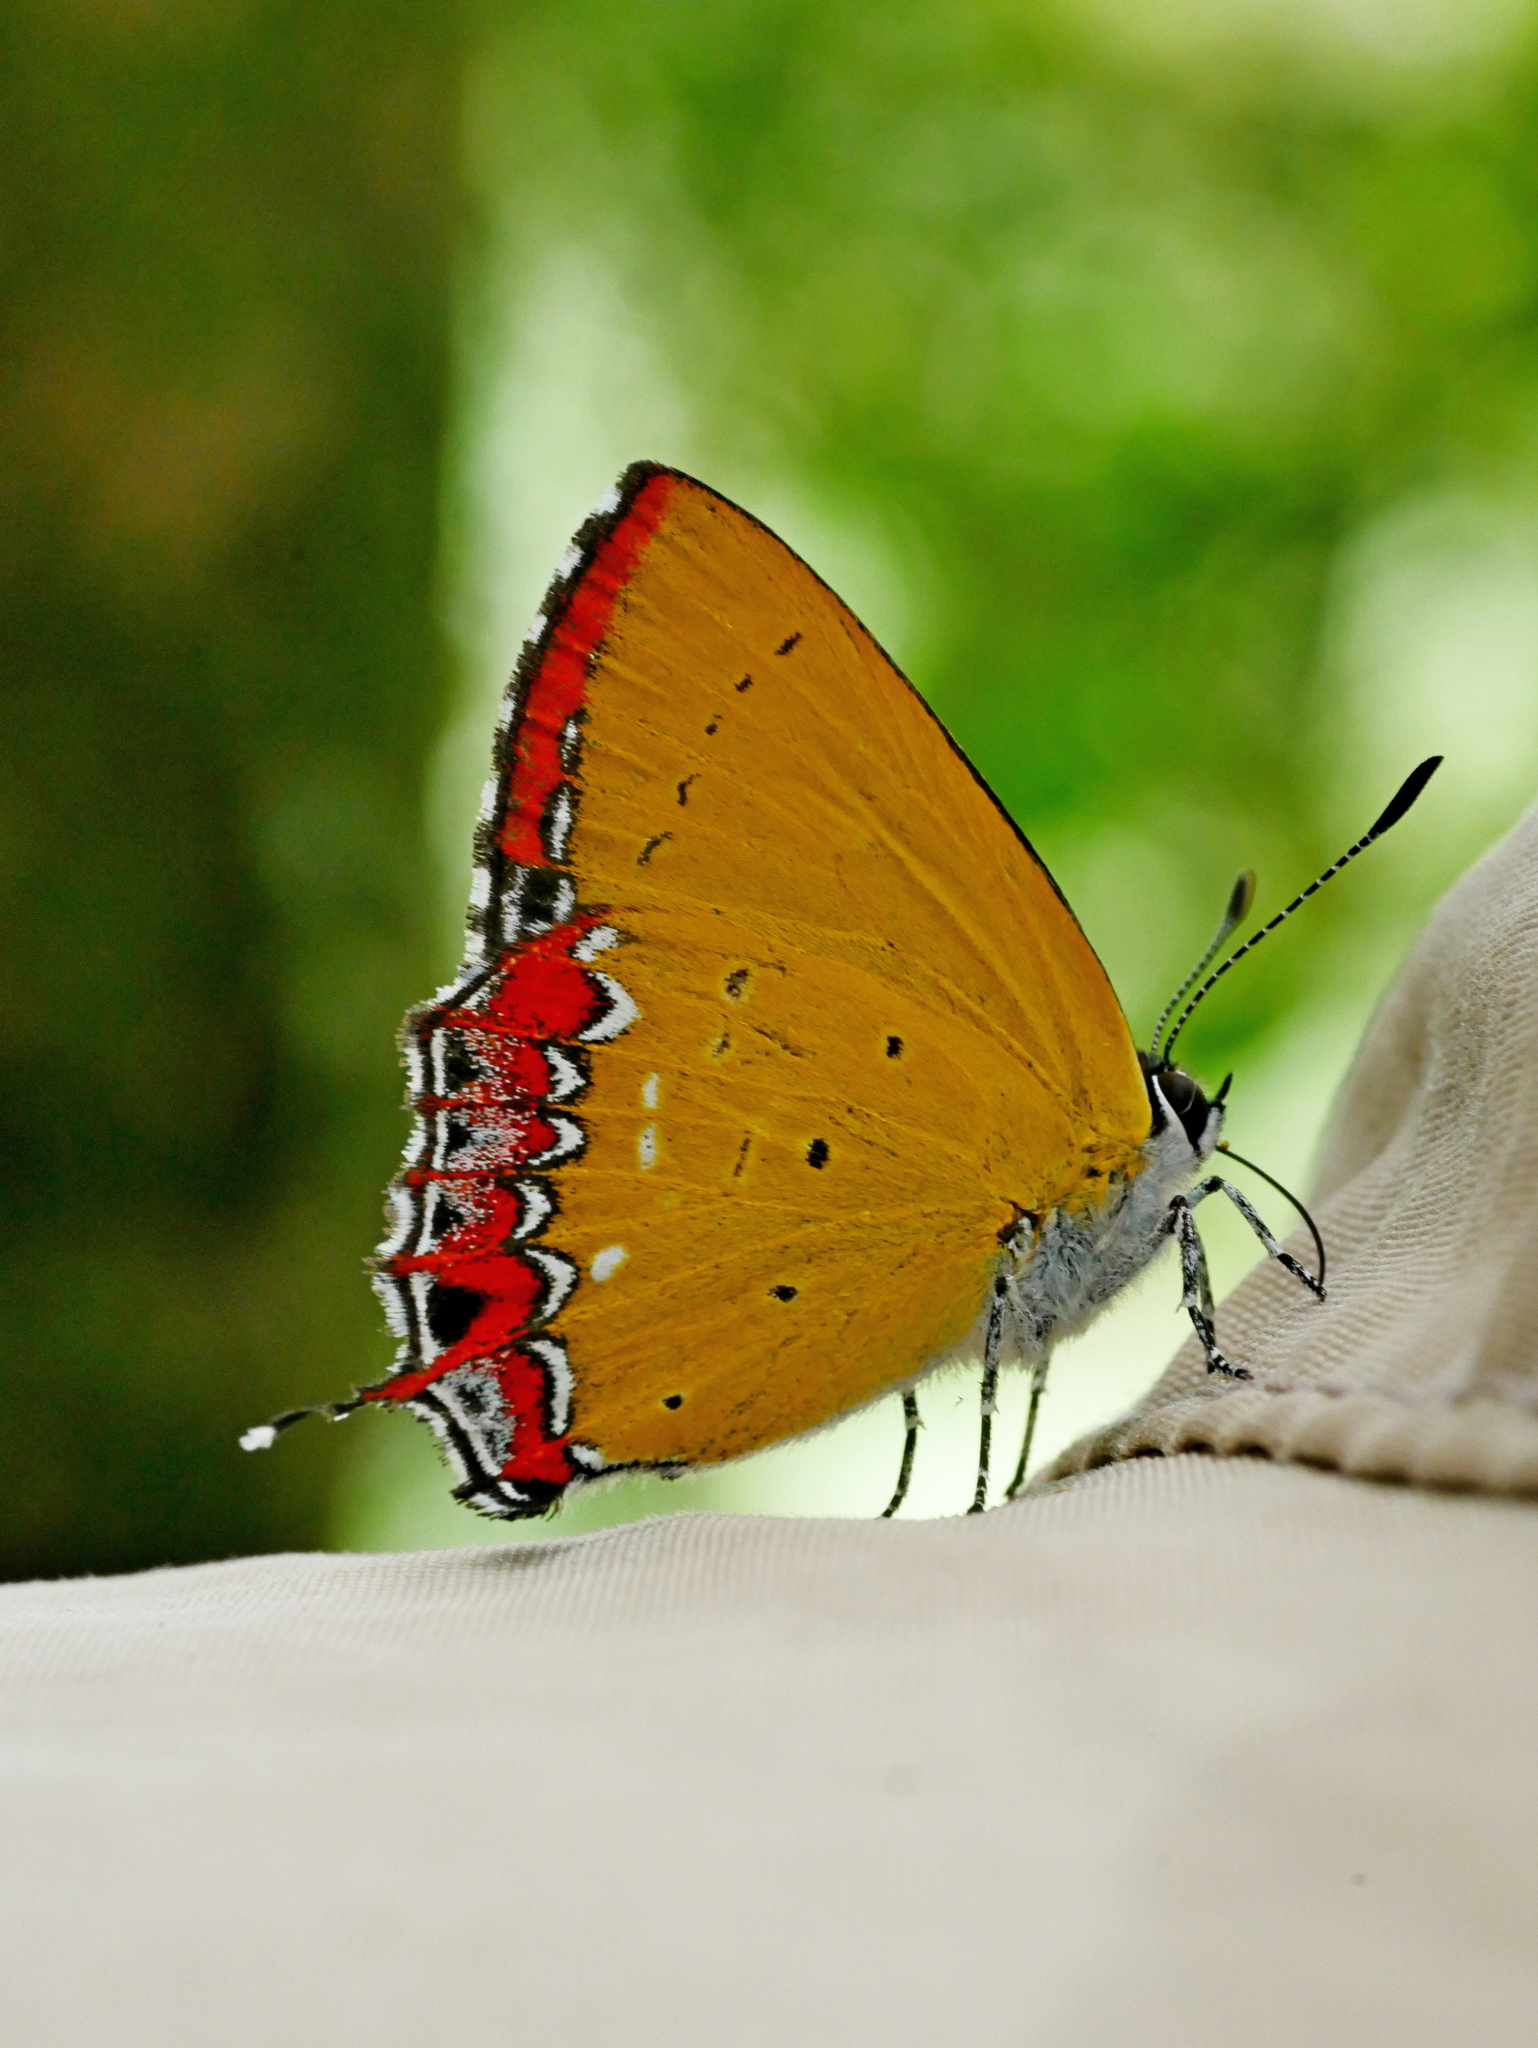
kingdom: Animalia
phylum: Arthropoda
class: Insecta
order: Lepidoptera
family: Lycaenidae
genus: Heliophorus
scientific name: Heliophorus ila
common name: Restricted purple sapphire
